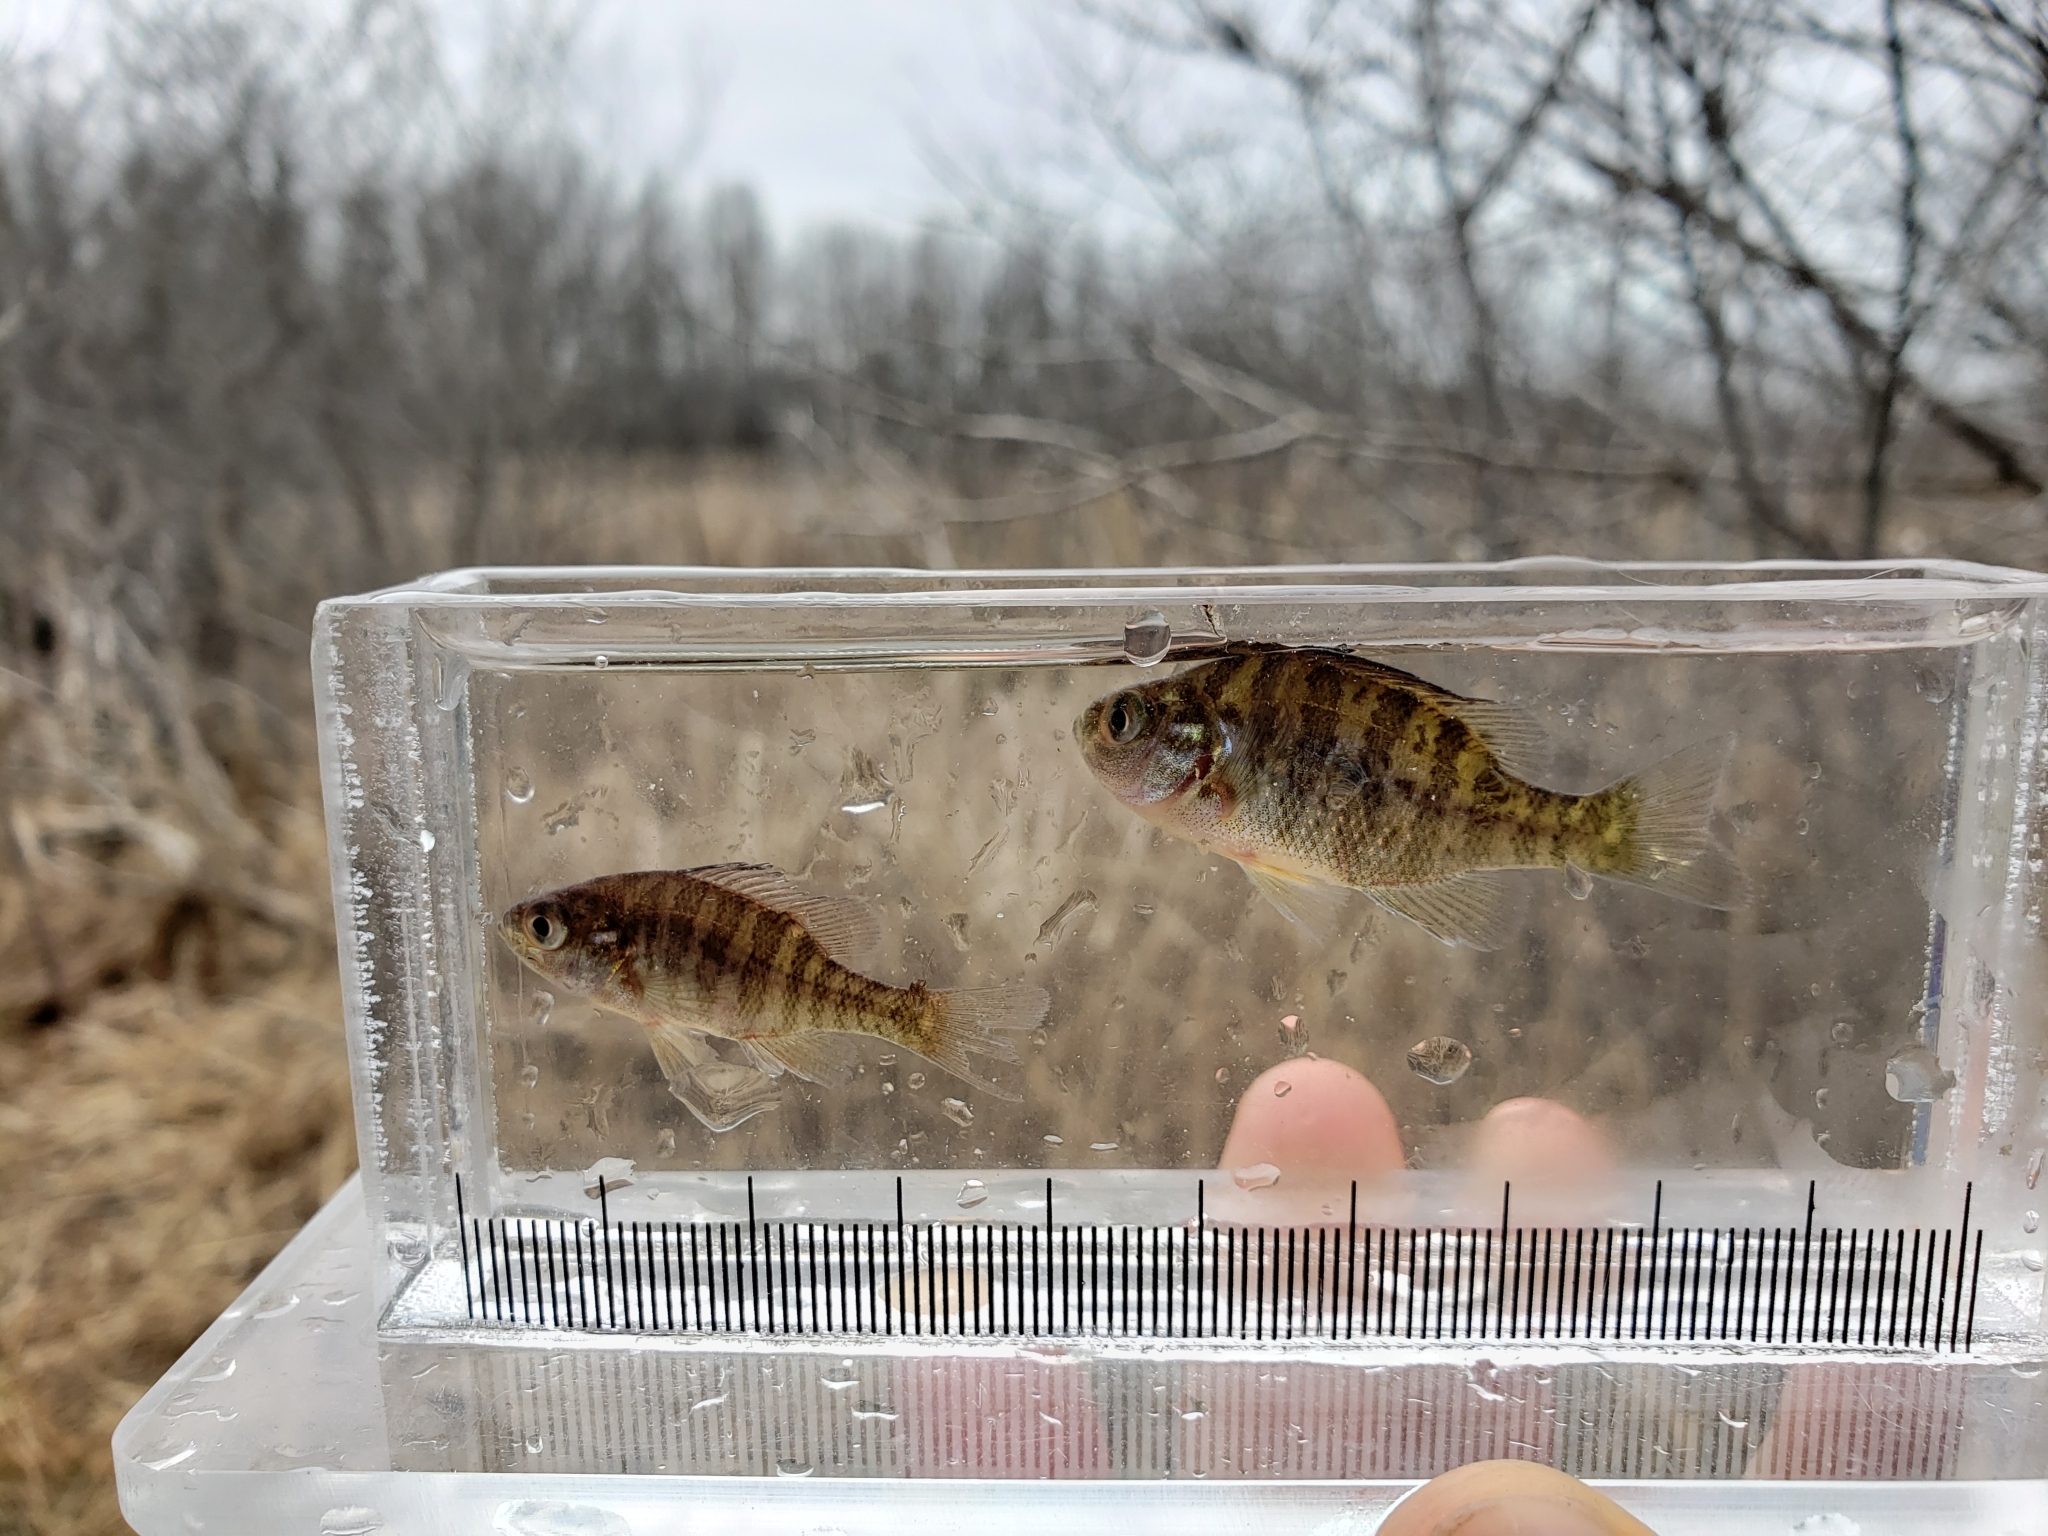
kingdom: Animalia
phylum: Chordata
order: Perciformes
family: Centrarchidae
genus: Lepomis
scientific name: Lepomis gibbosus
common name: Pumpkinseed
